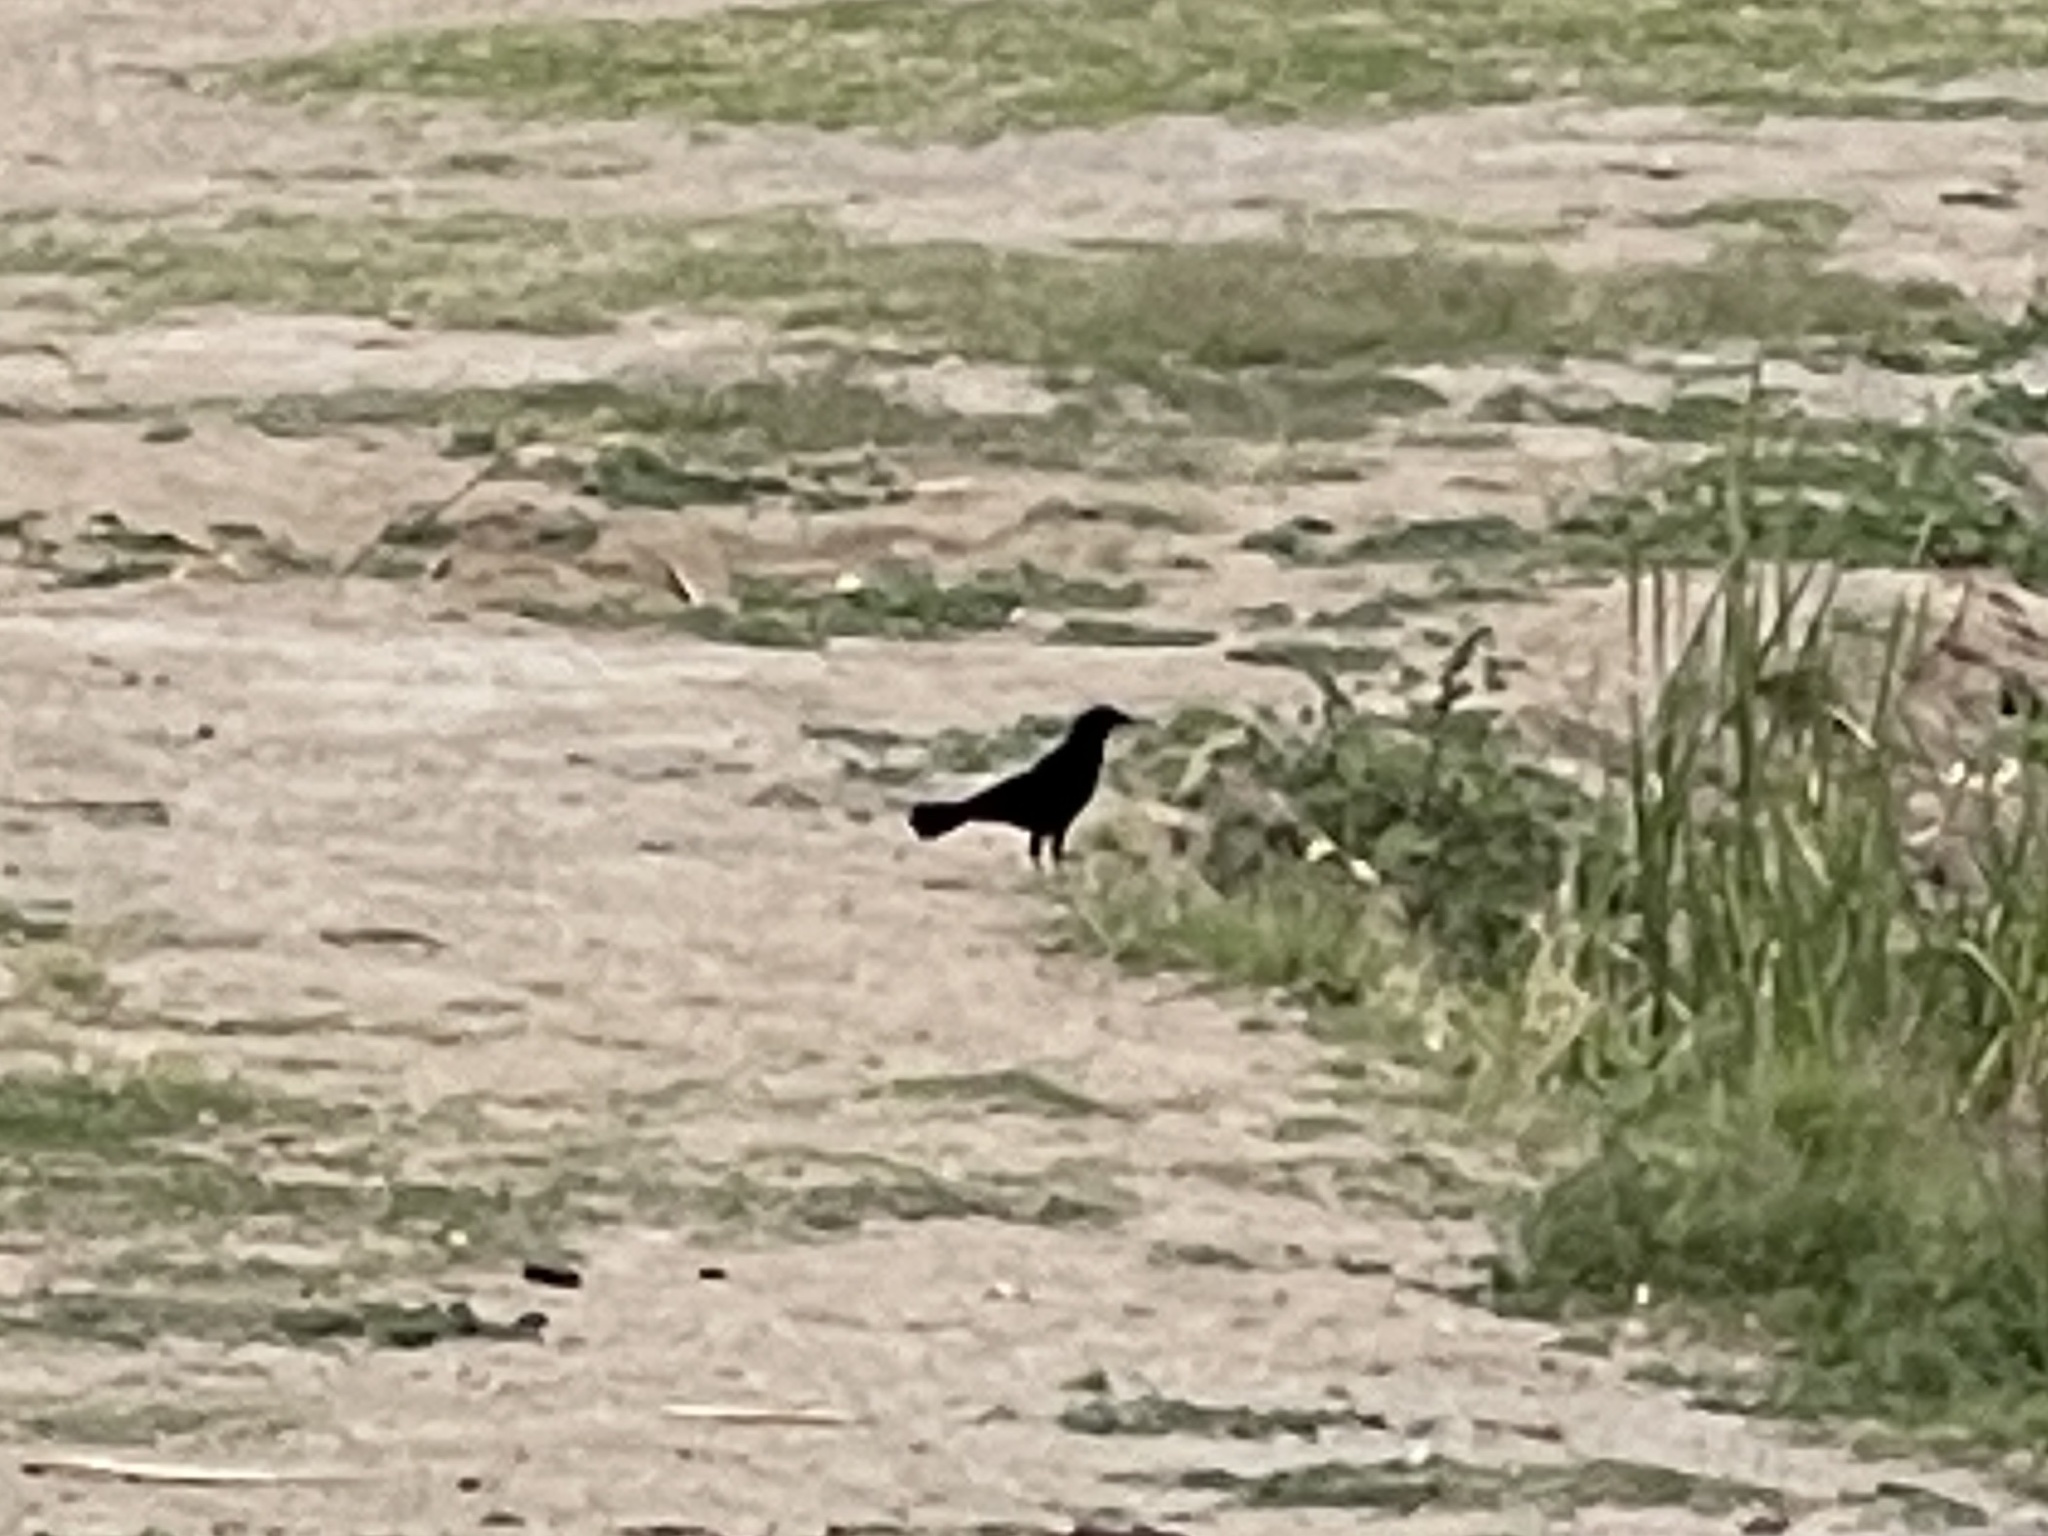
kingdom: Animalia
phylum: Chordata
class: Aves
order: Passeriformes
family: Icteridae
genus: Quiscalus
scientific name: Quiscalus mexicanus
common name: Great-tailed grackle
